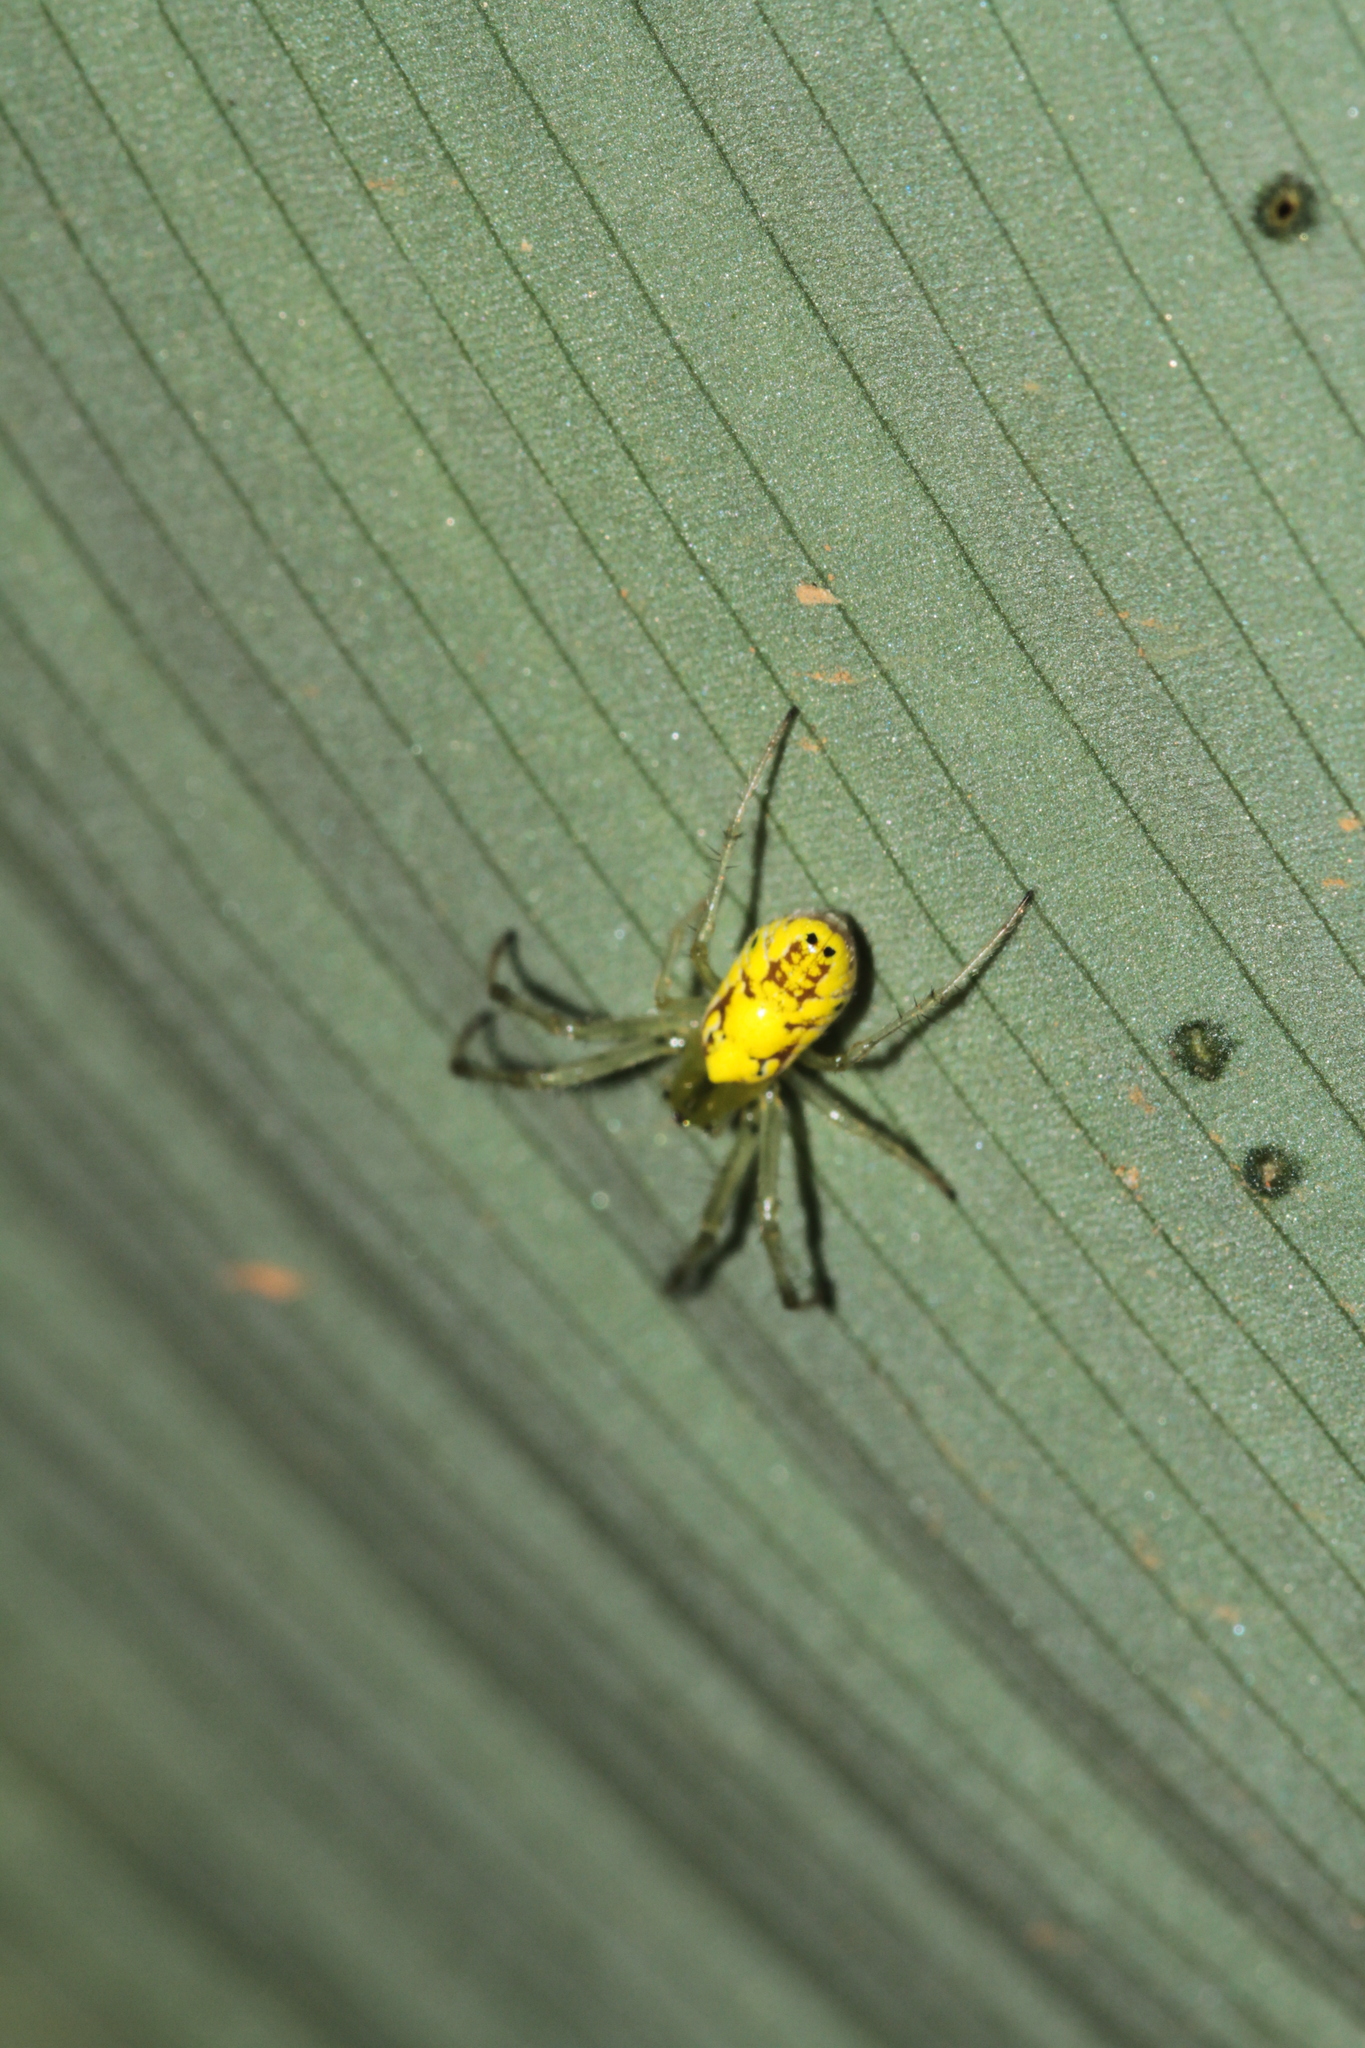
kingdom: Animalia
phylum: Arthropoda
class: Arachnida
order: Araneae
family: Araneidae
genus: Alpaida
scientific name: Alpaida delicata
